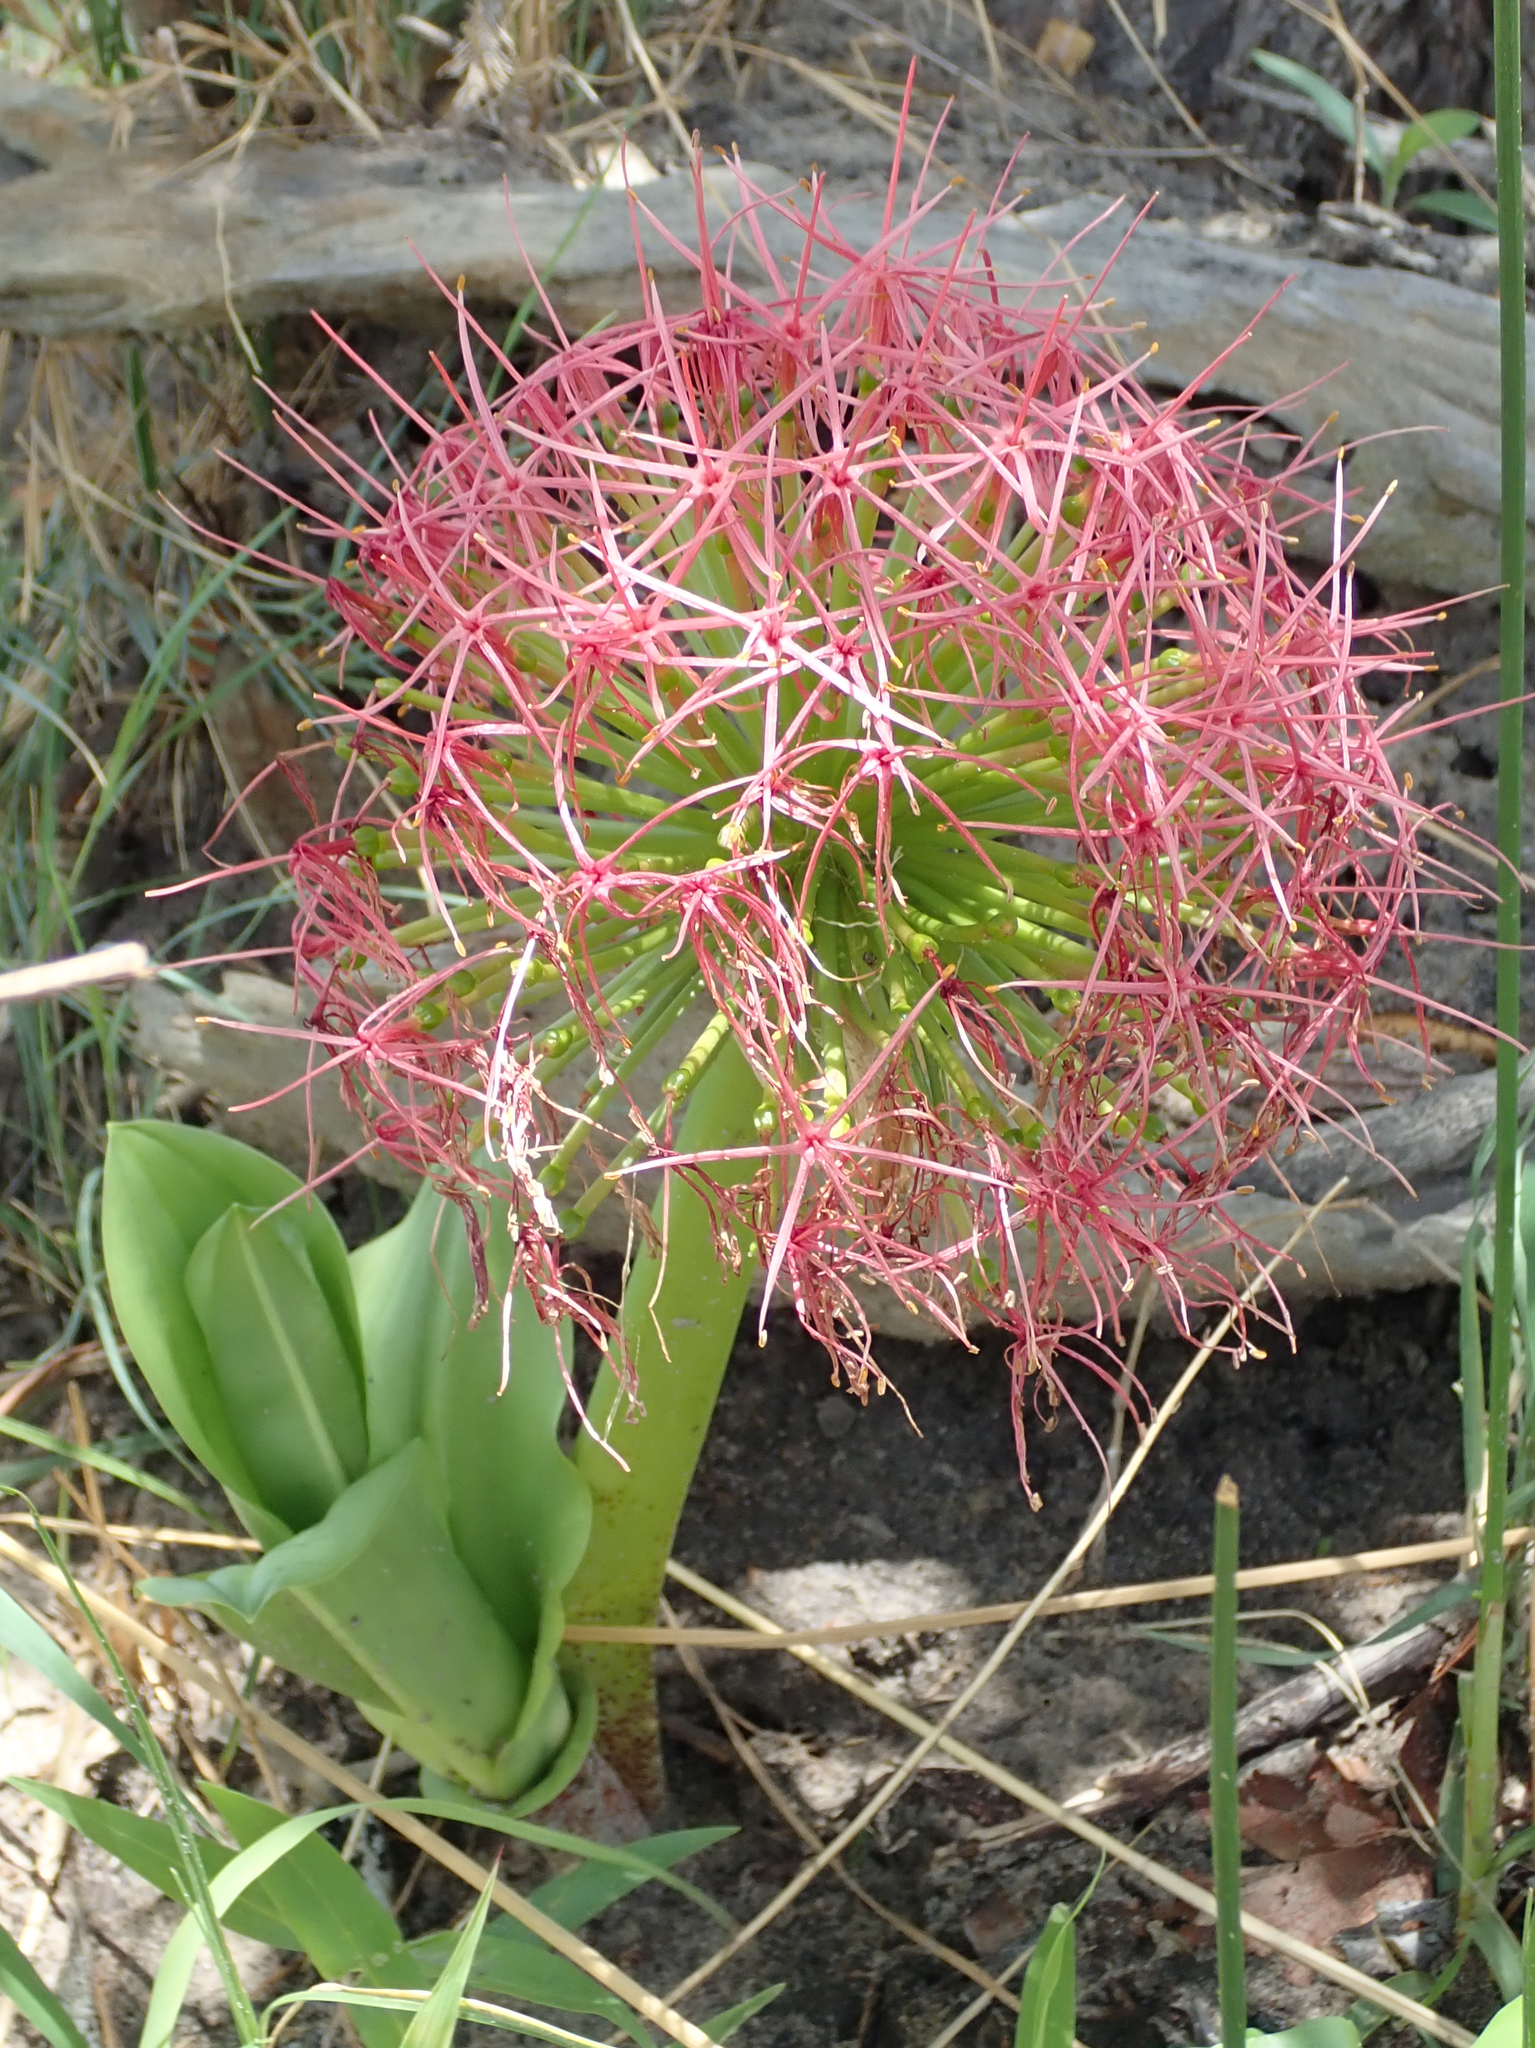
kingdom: Plantae
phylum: Tracheophyta
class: Liliopsida
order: Asparagales
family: Amaryllidaceae
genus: Scadoxus
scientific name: Scadoxus multiflorus
